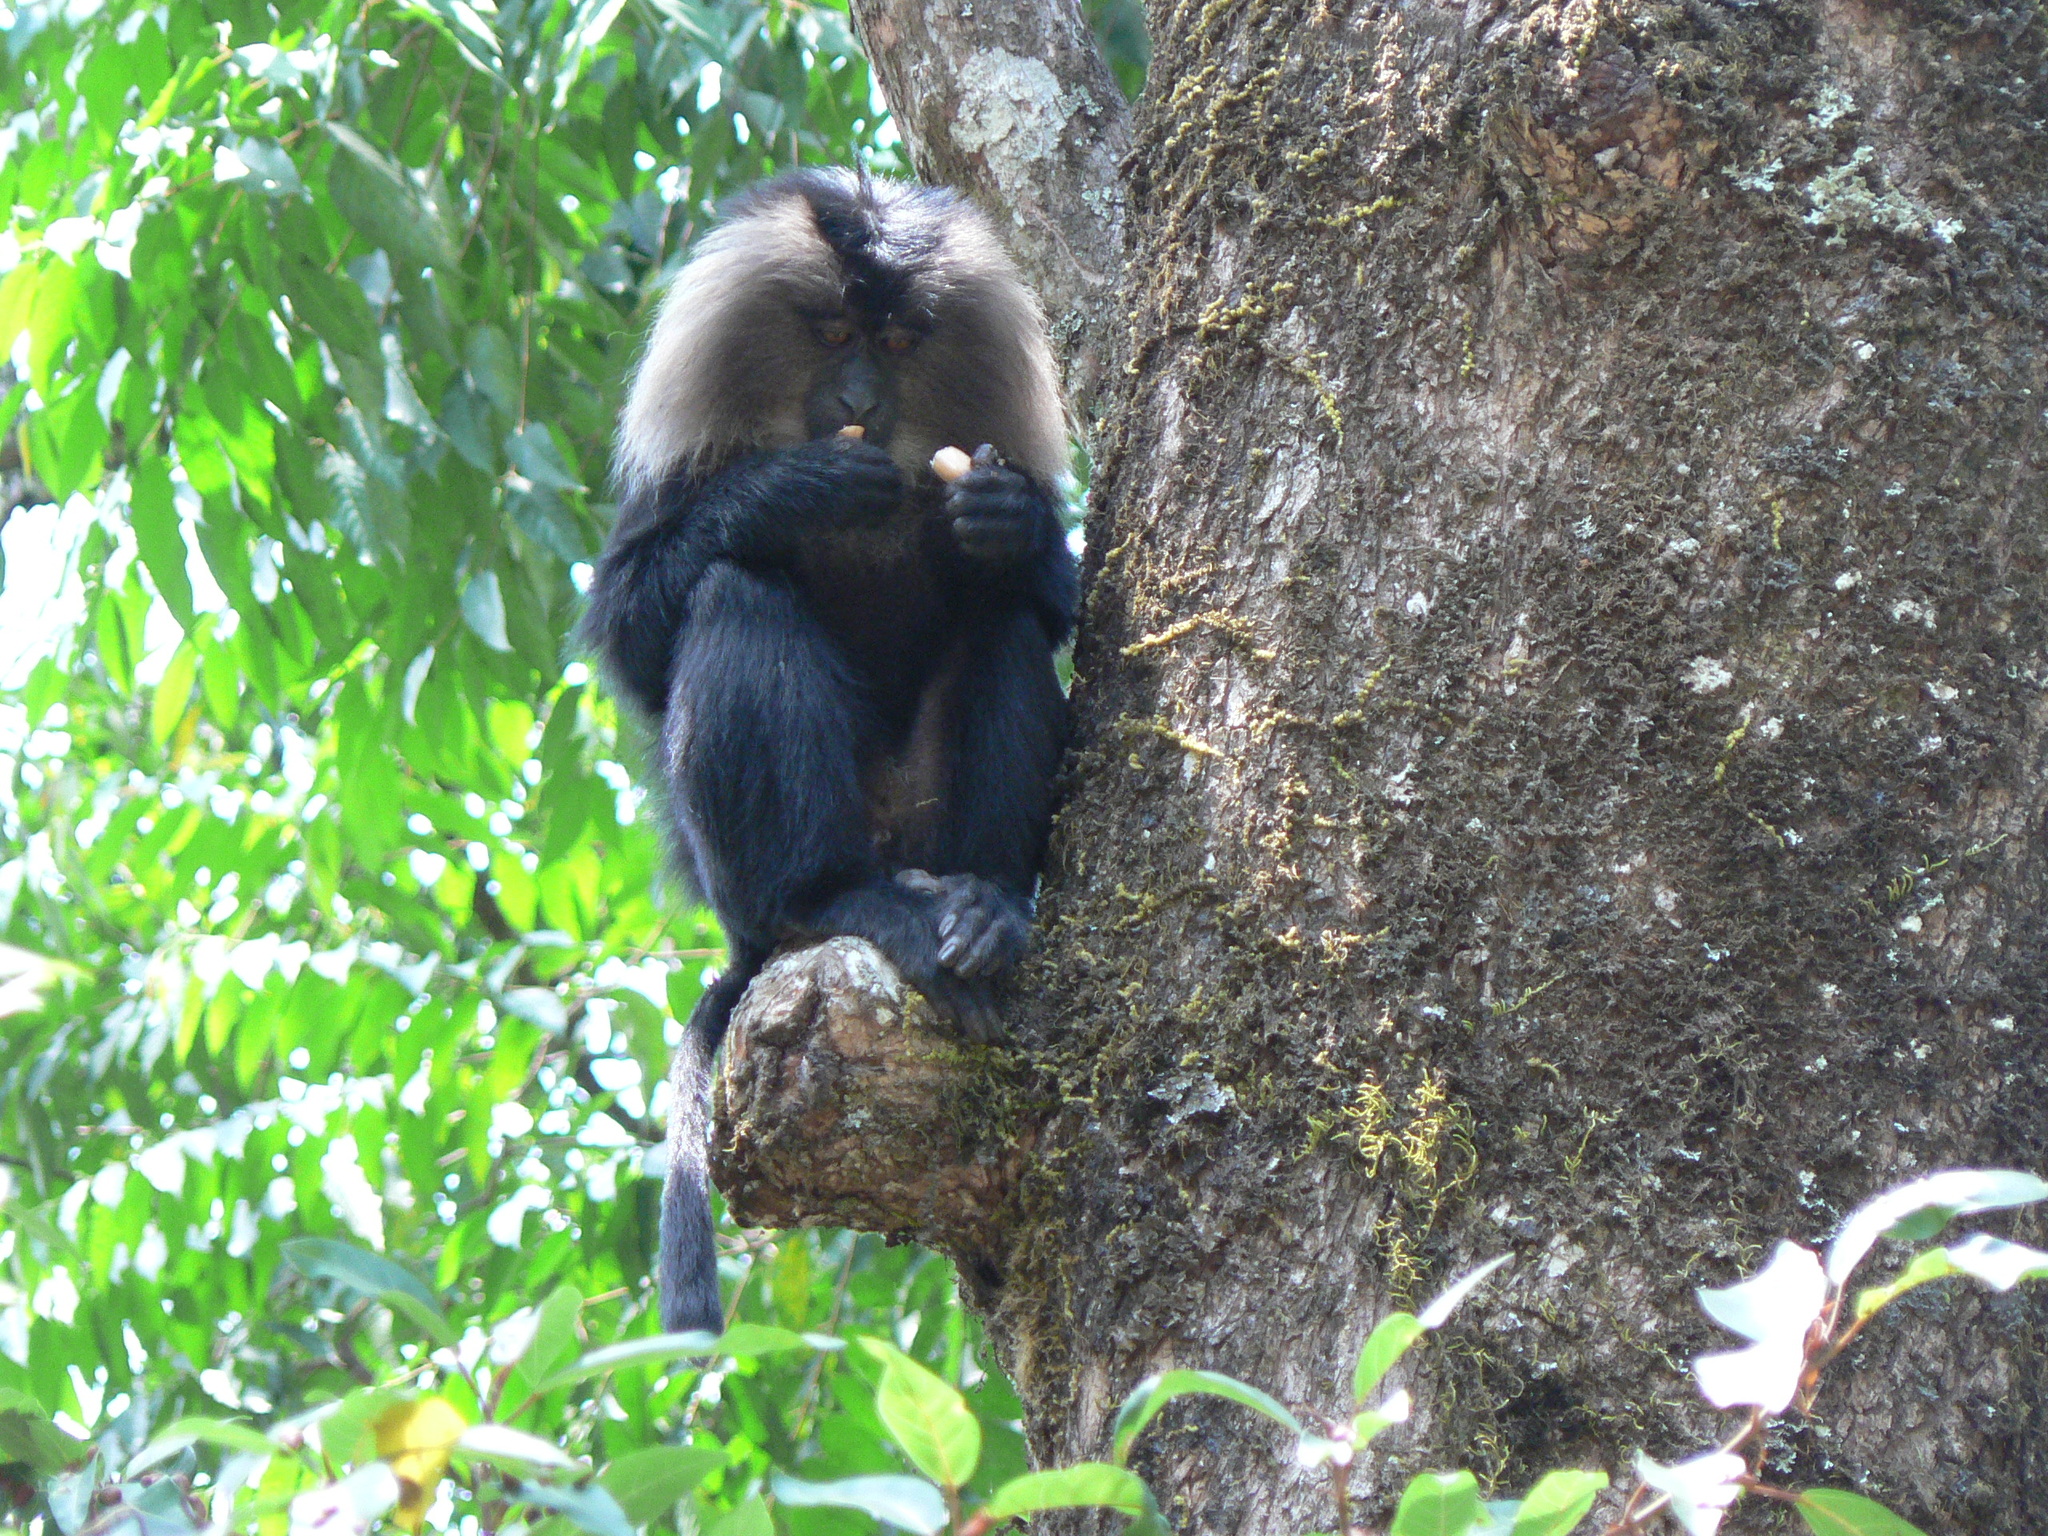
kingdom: Animalia
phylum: Chordata
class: Mammalia
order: Primates
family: Cercopithecidae
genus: Macaca
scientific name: Macaca silenus
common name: Lion-tailed macaque
